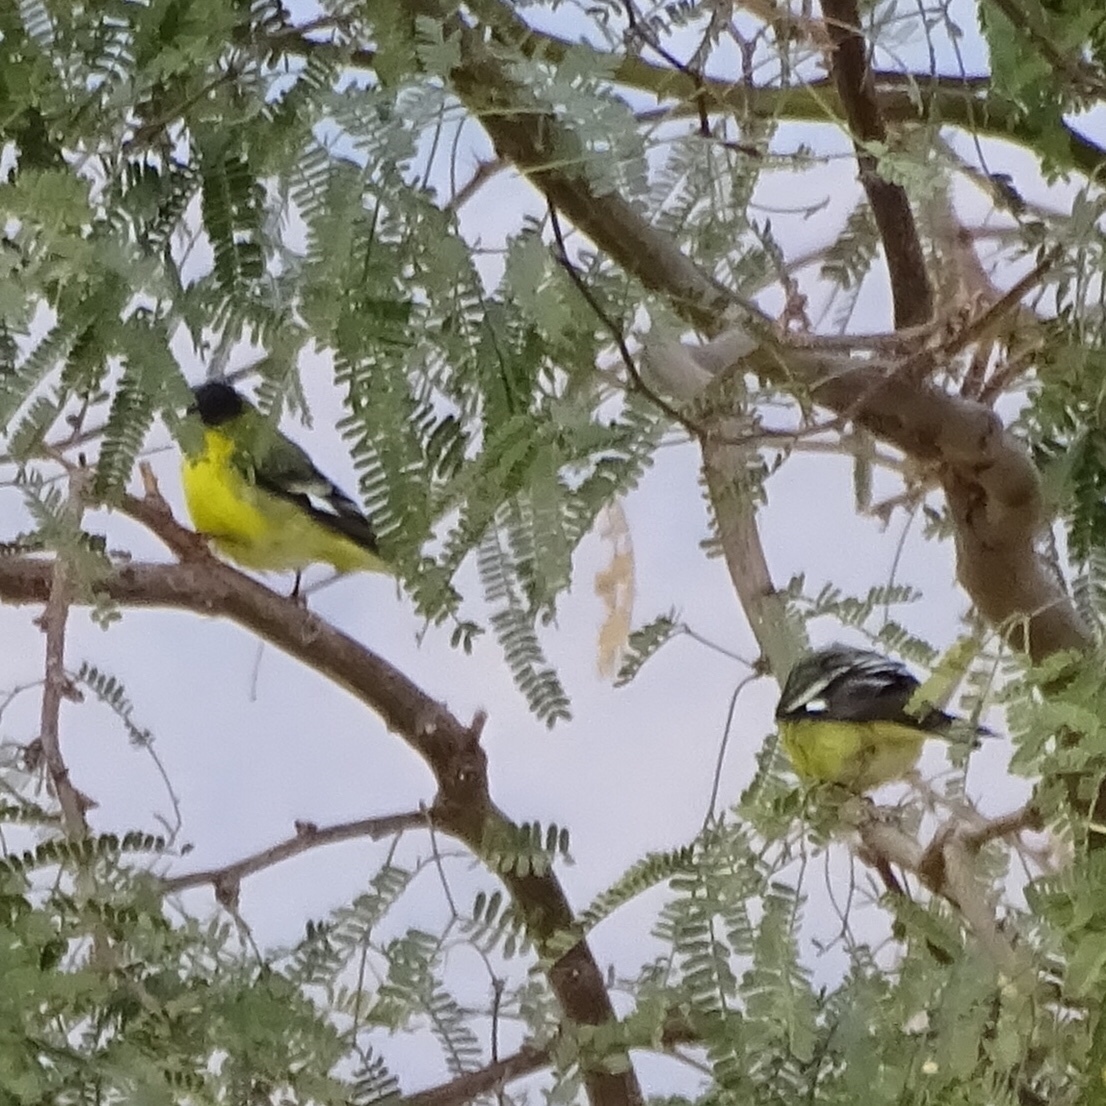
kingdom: Animalia
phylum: Chordata
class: Aves
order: Passeriformes
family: Fringillidae
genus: Spinus
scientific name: Spinus psaltria
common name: Lesser goldfinch
